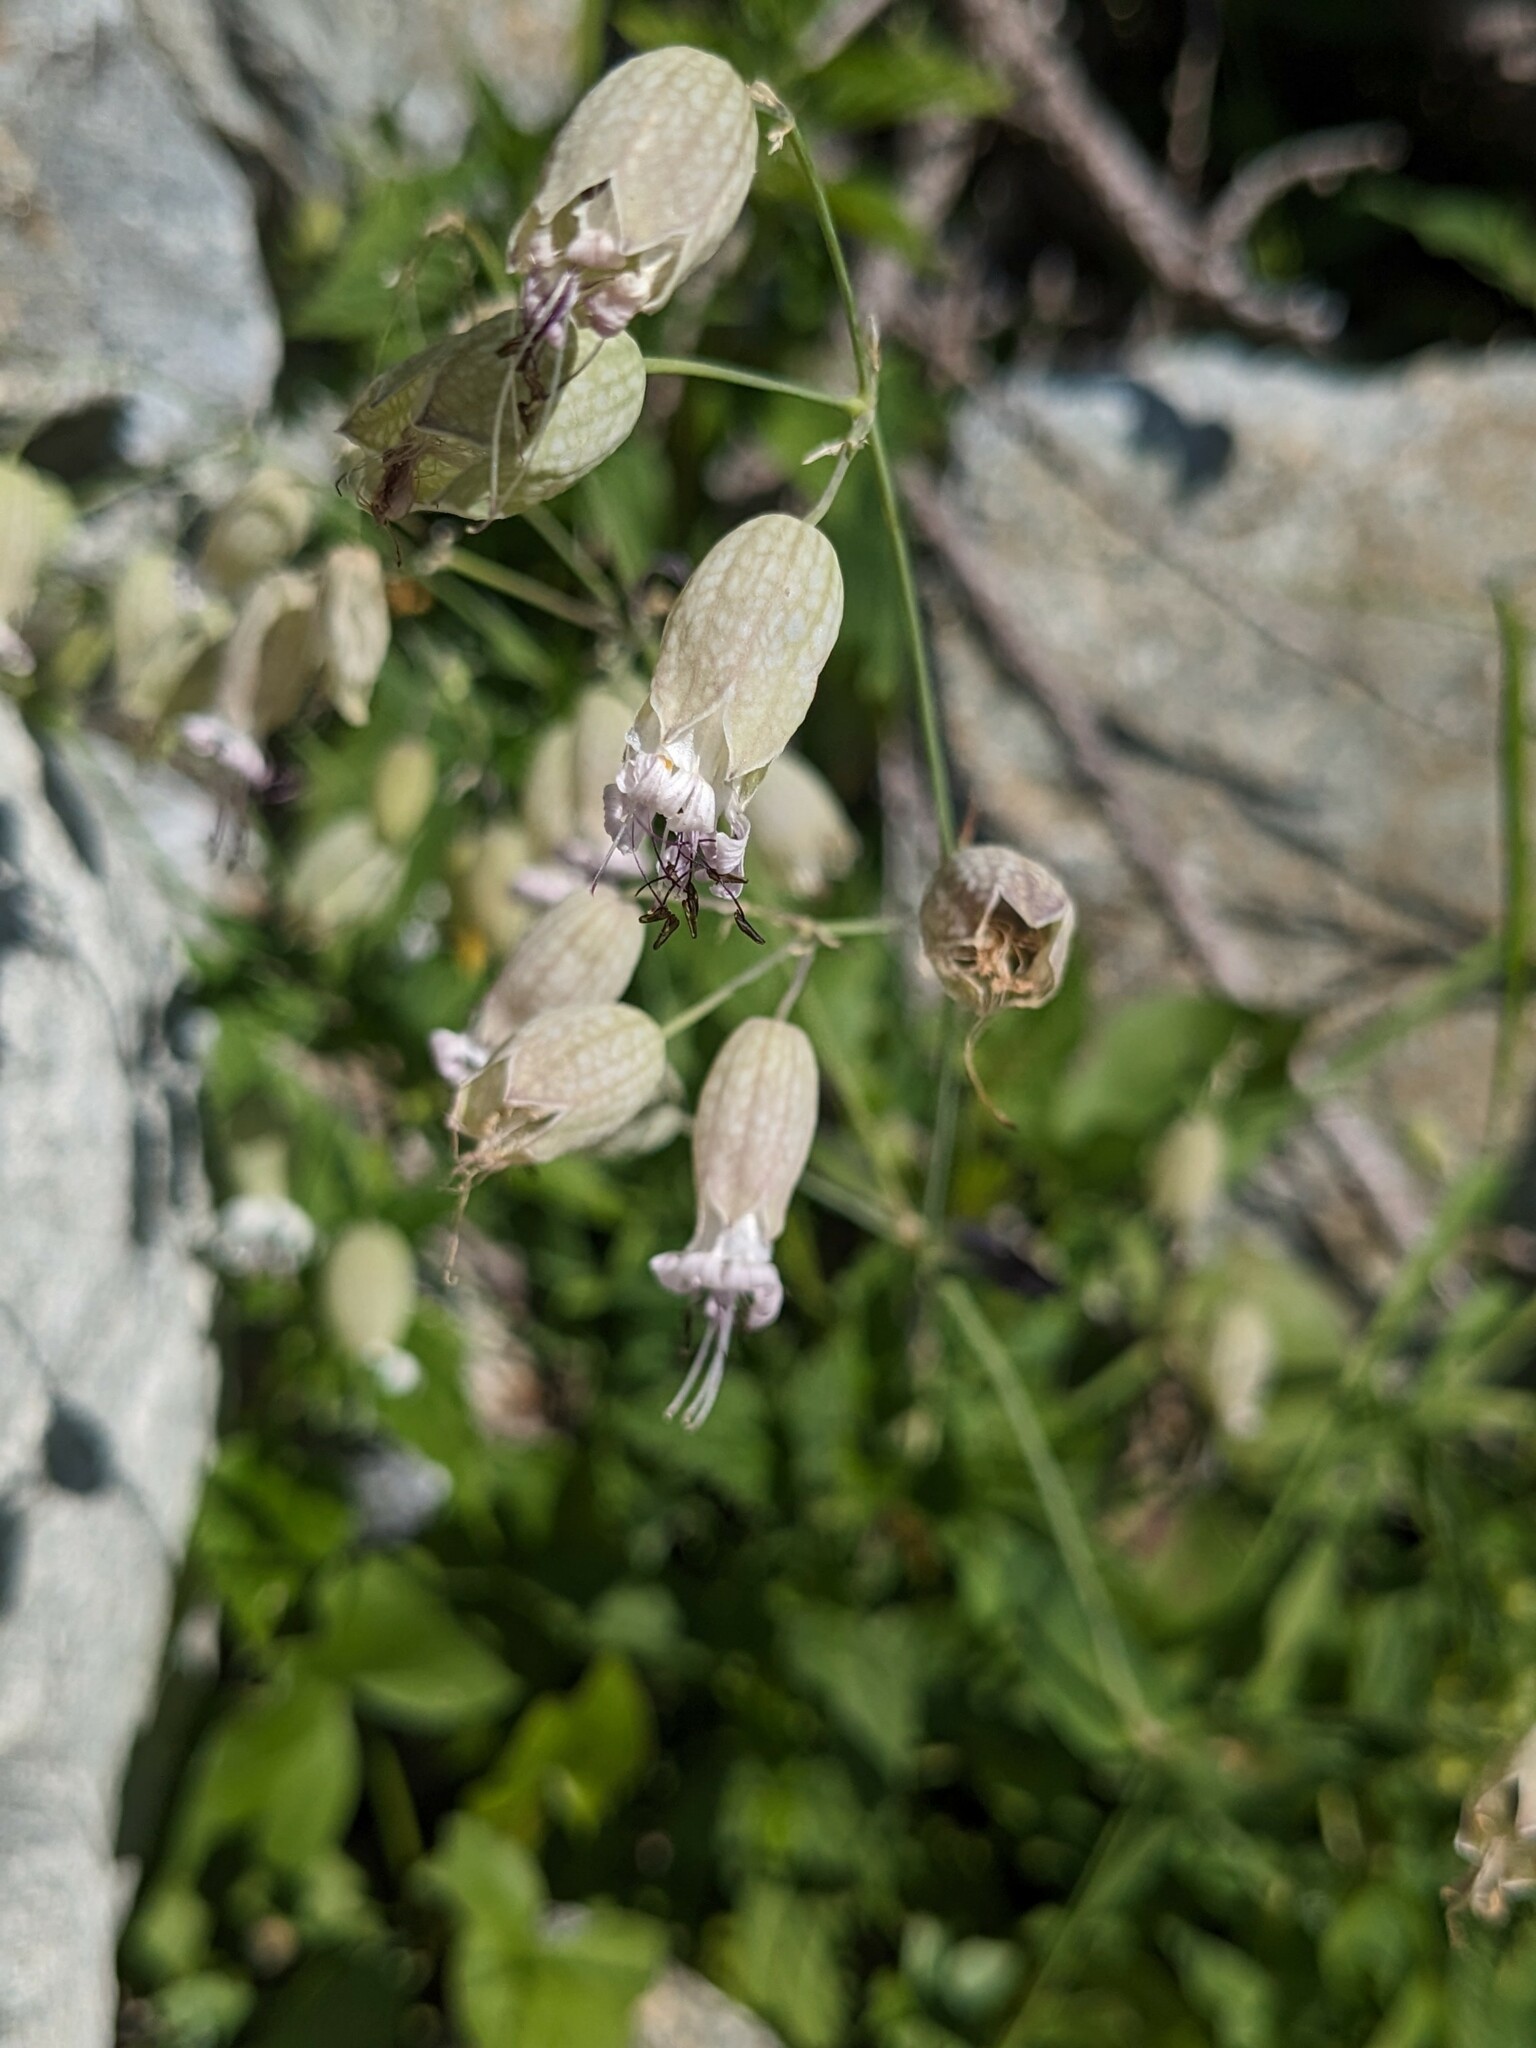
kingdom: Plantae
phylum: Tracheophyta
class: Magnoliopsida
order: Caryophyllales
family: Caryophyllaceae
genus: Silene
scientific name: Silene vulgaris
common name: Bladder campion
